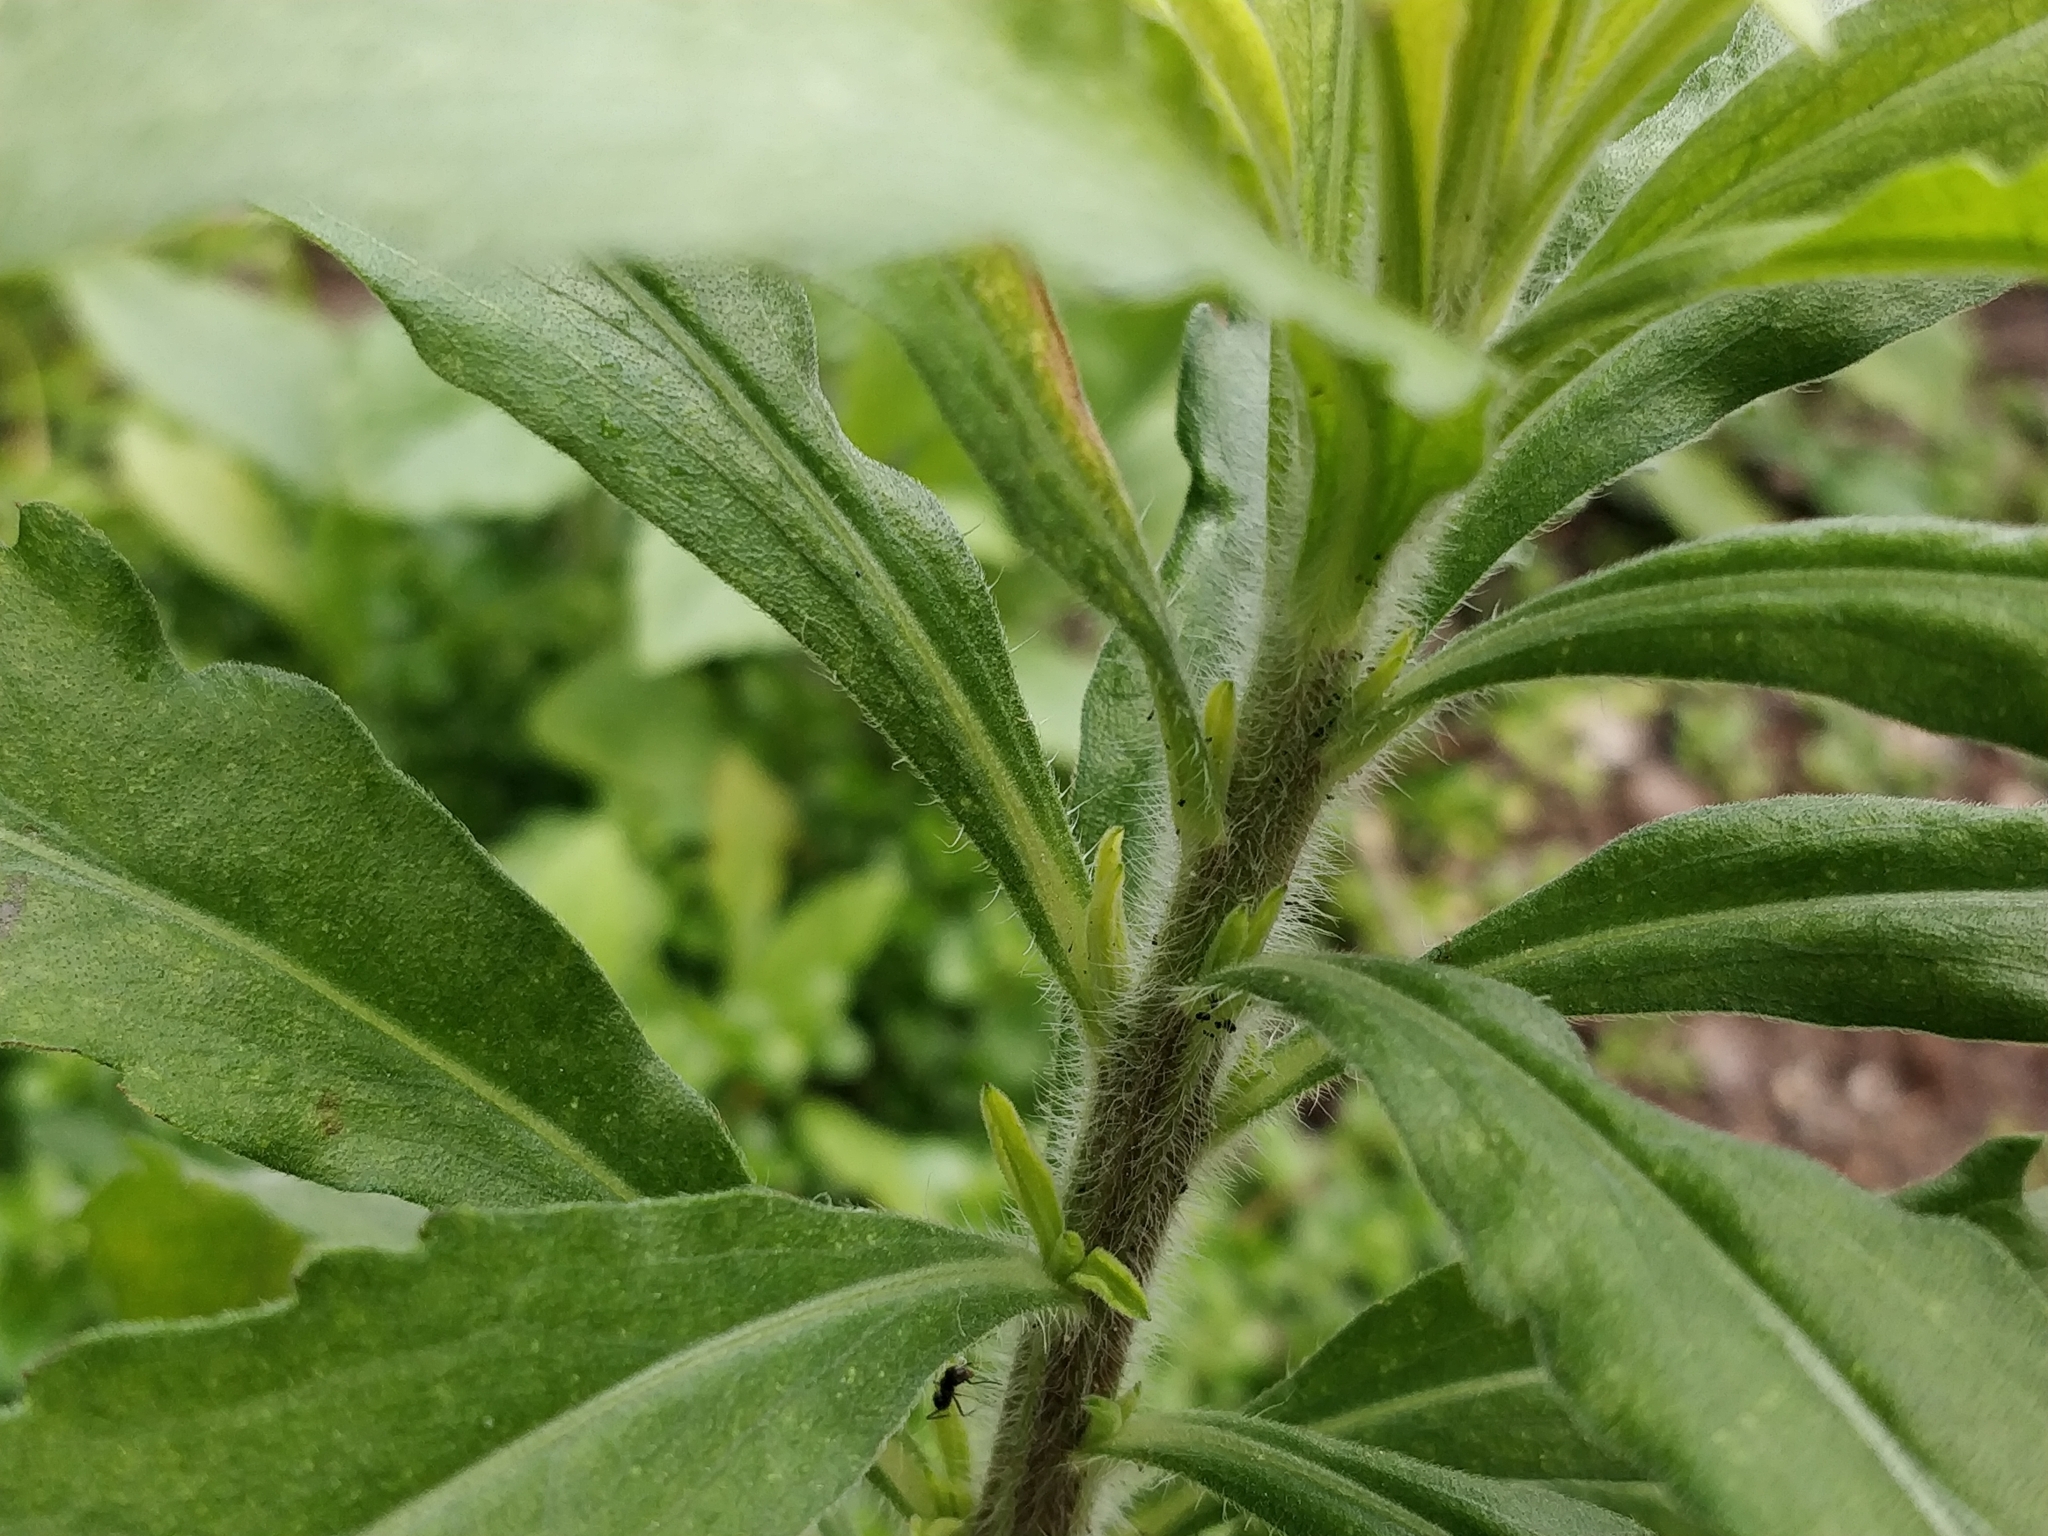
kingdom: Plantae
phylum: Tracheophyta
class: Magnoliopsida
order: Asterales
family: Asteraceae
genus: Erigeron
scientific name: Erigeron sumatrensis
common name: Daisy
